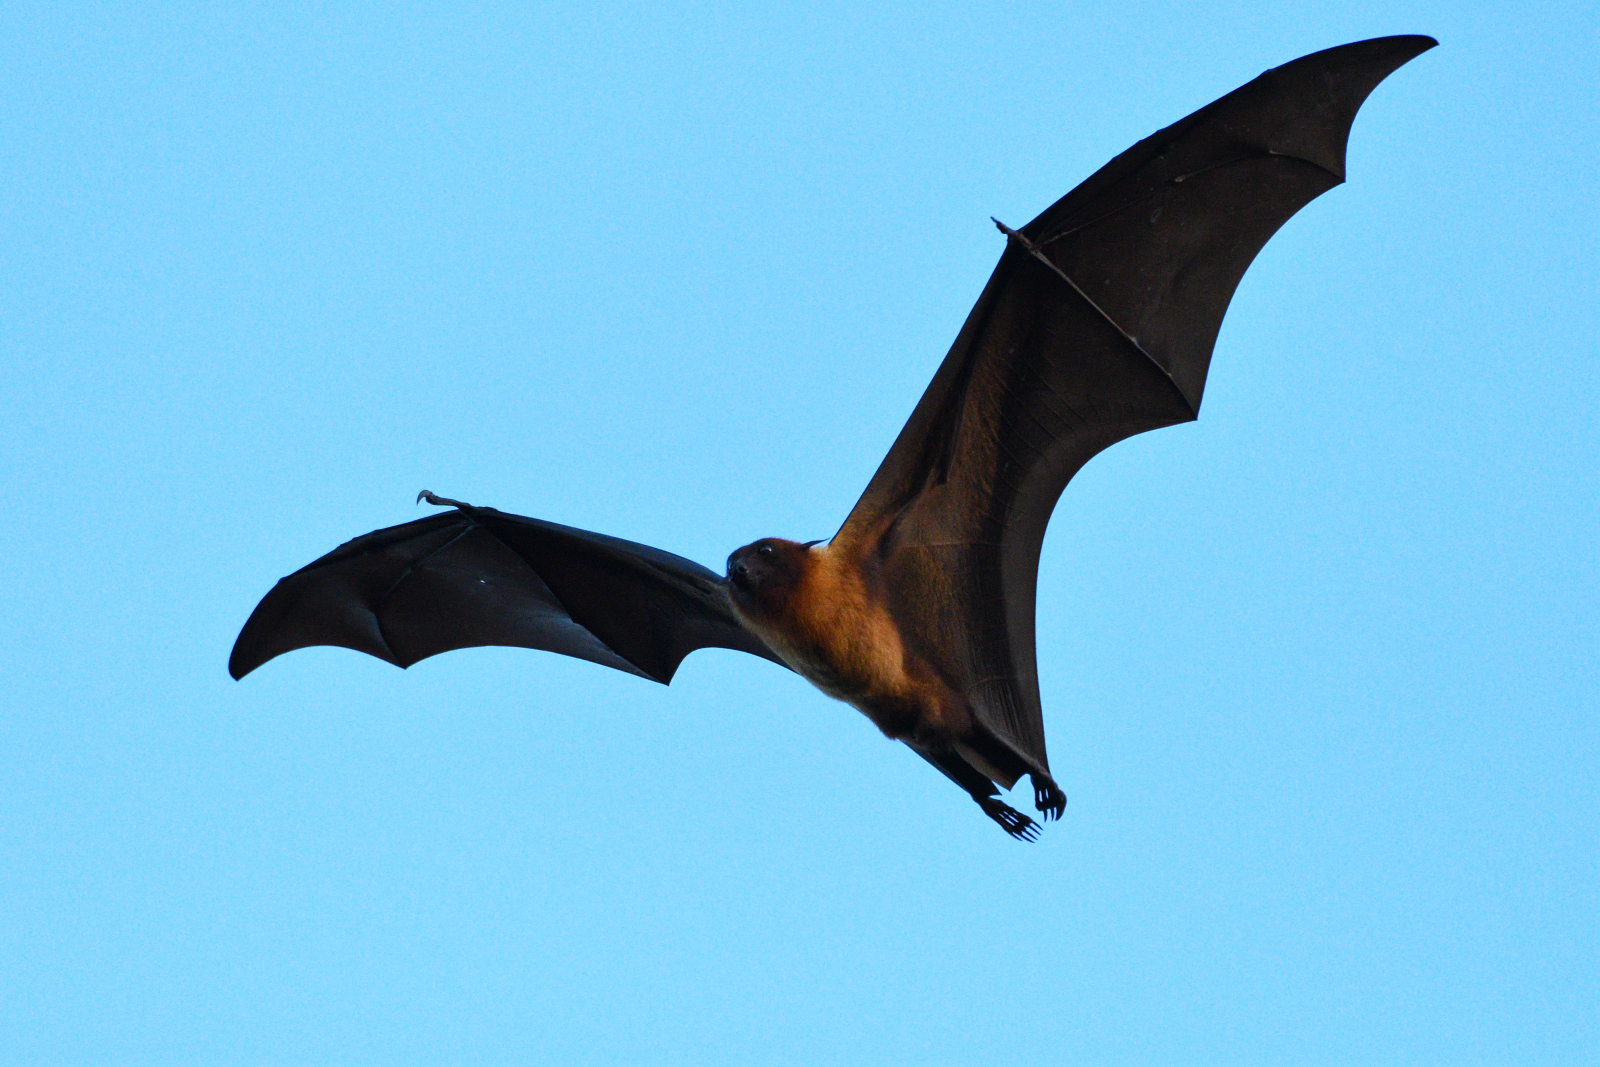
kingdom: Animalia
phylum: Chordata
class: Mammalia
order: Chiroptera
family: Pteropodidae
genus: Pteropus
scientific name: Pteropus vampyrus
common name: Large flying fox
